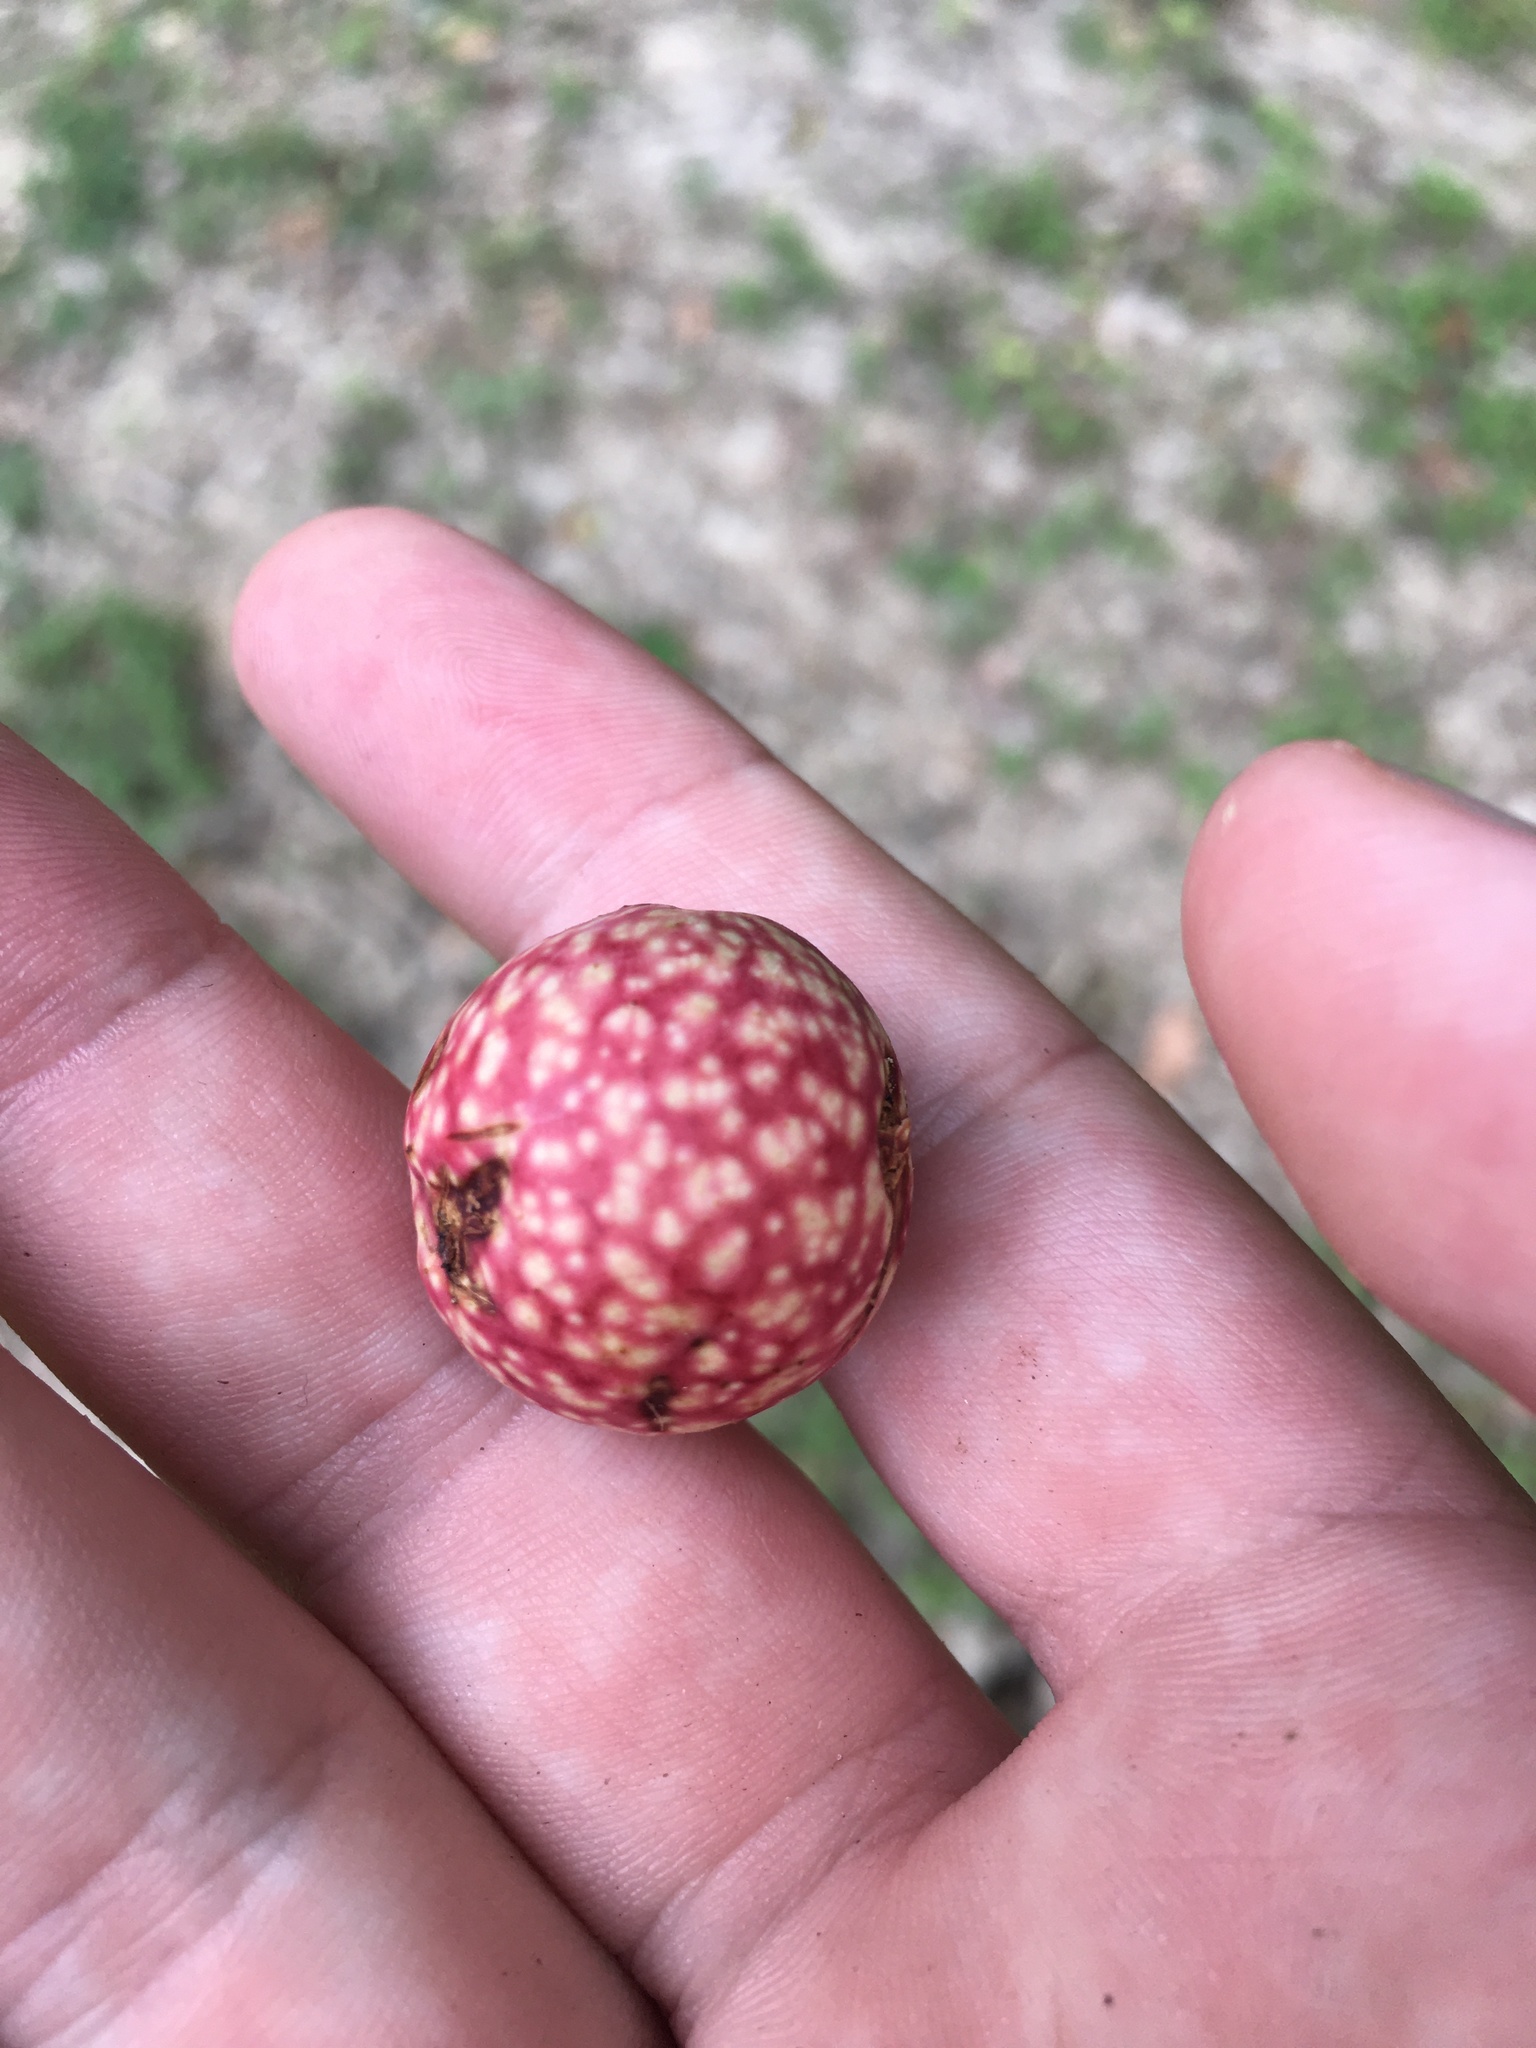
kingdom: Animalia
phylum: Arthropoda
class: Insecta
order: Hymenoptera
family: Cynipidae
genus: Amphibolips
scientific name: Amphibolips
